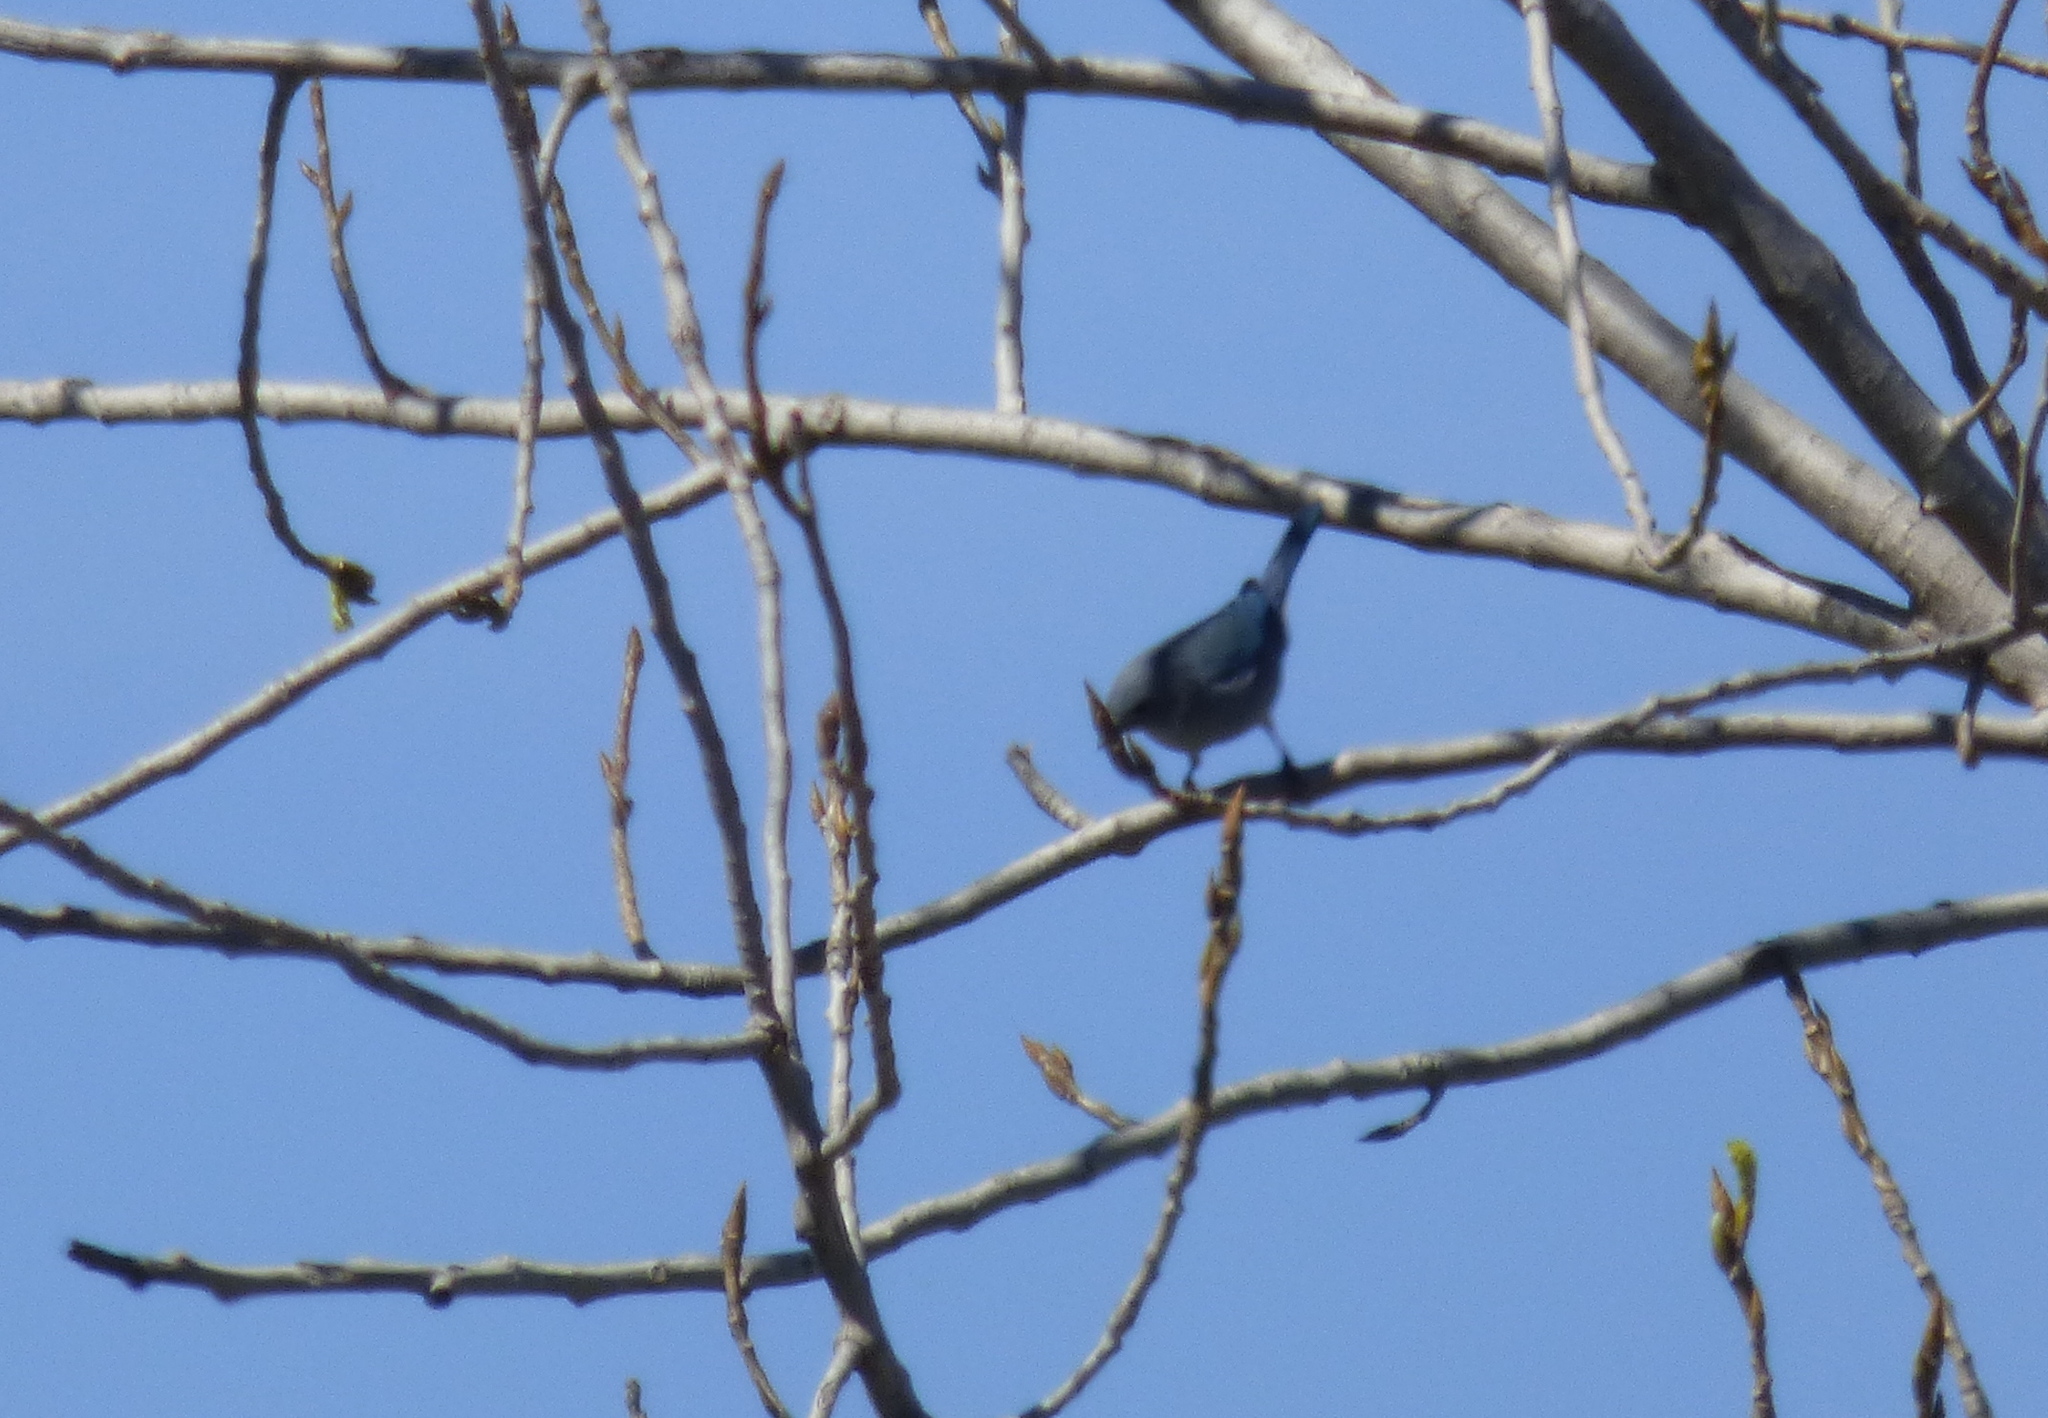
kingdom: Animalia
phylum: Chordata
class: Aves
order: Passeriformes
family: Thraupidae
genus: Thraupis
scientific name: Thraupis sayaca
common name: Sayaca tanager
